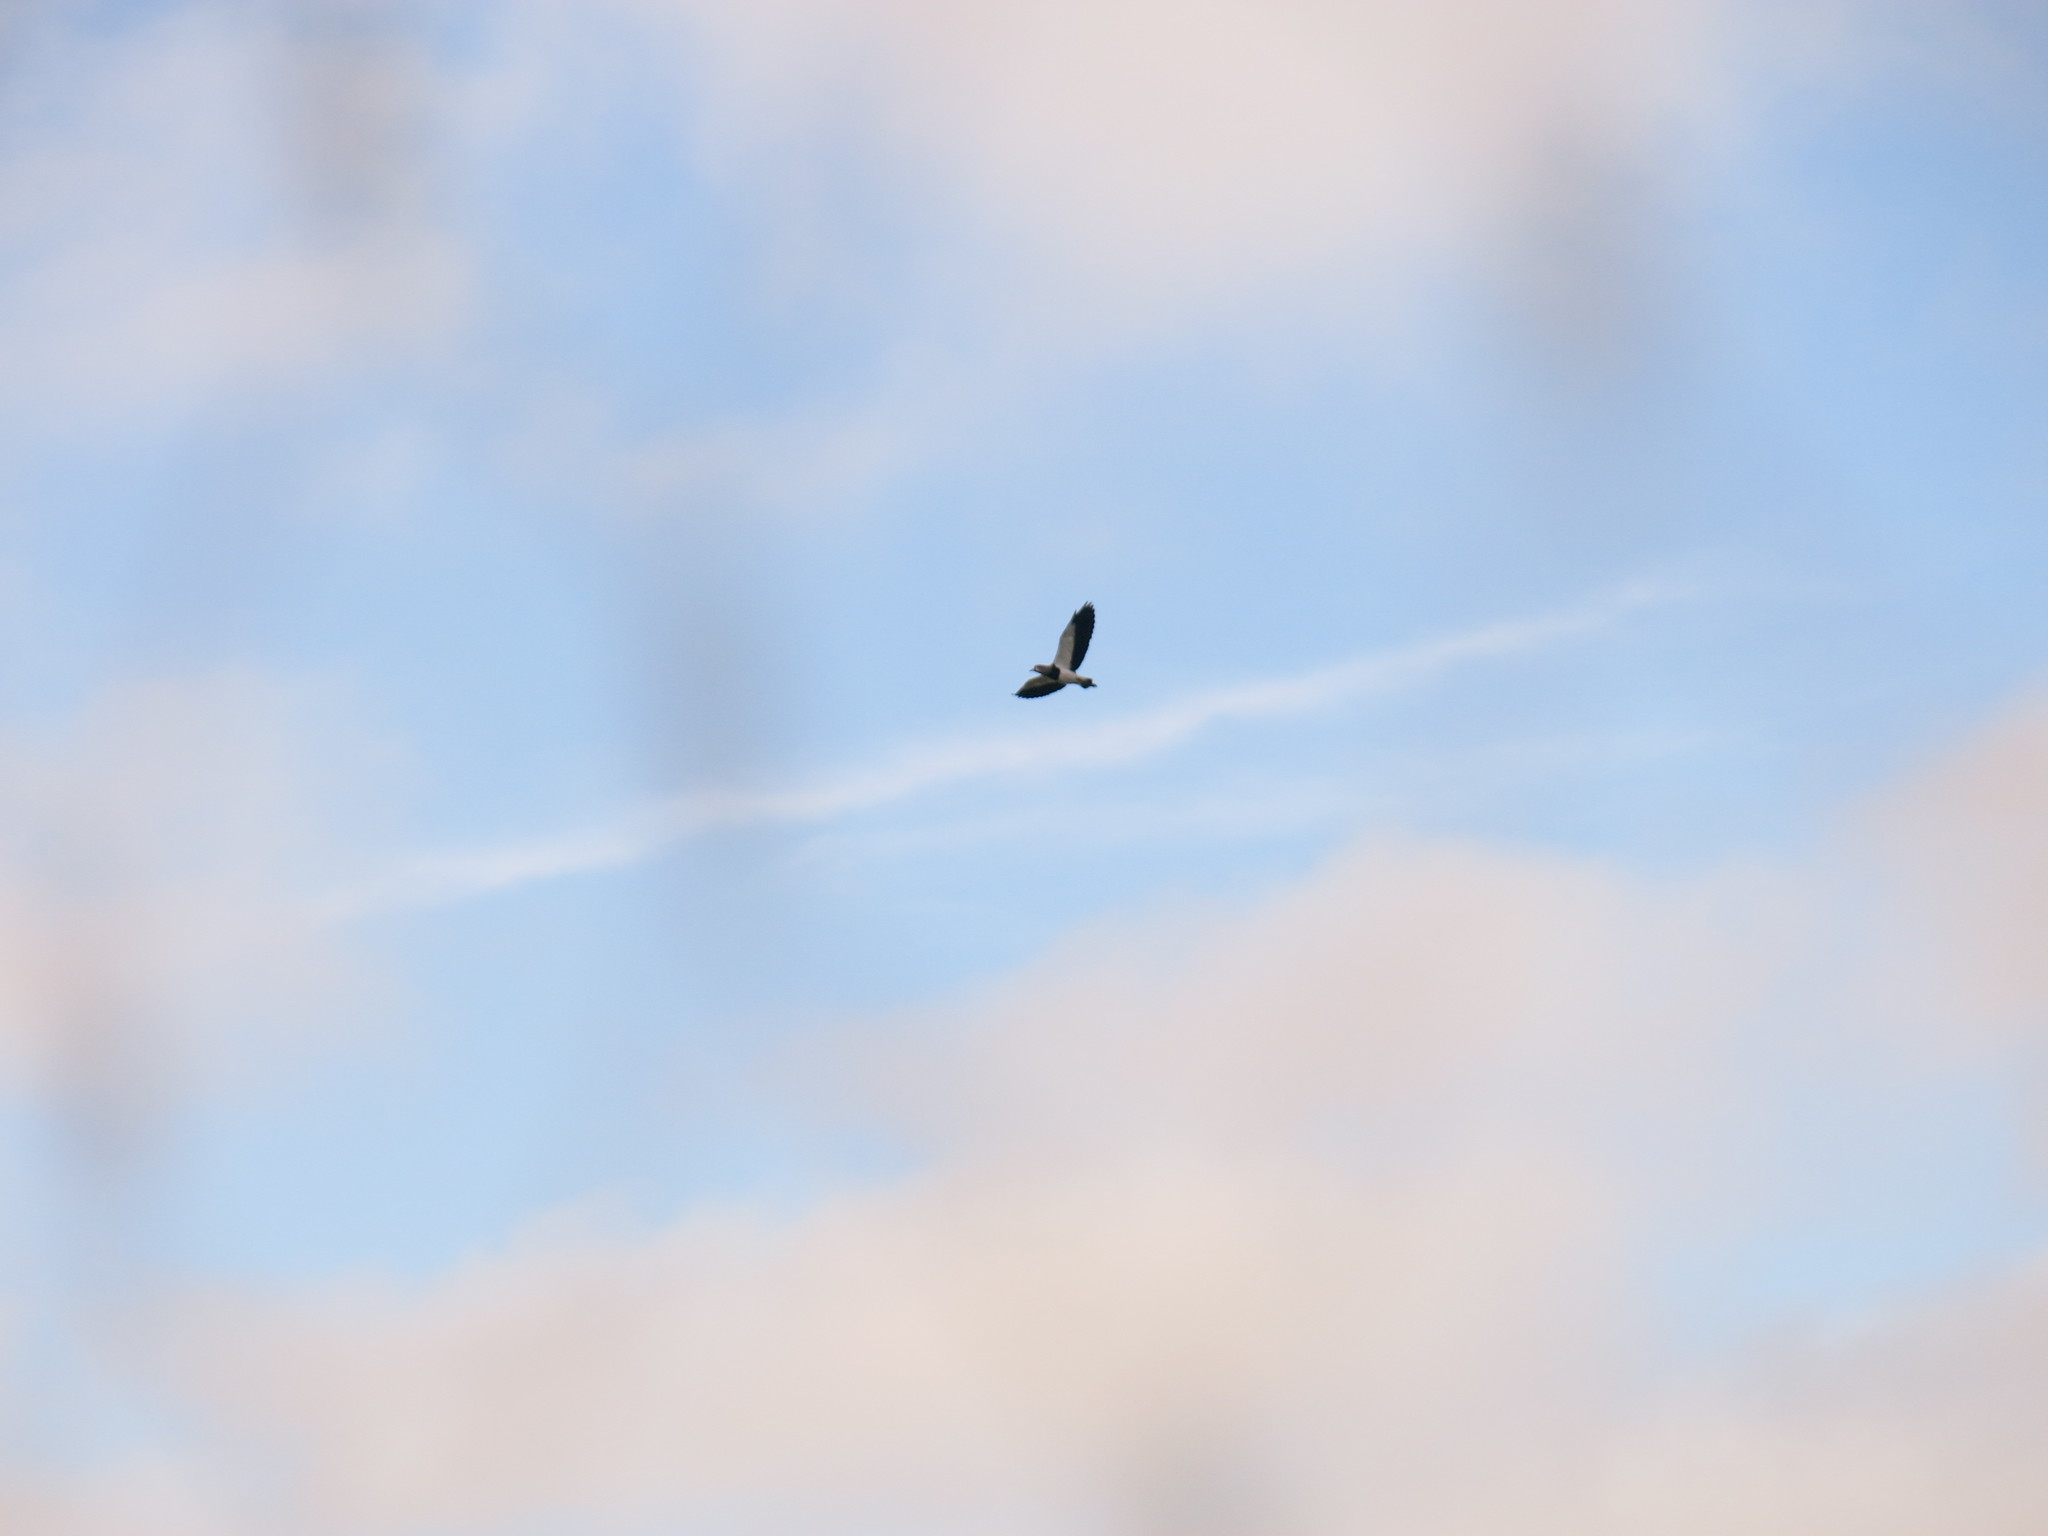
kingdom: Animalia
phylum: Chordata
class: Aves
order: Charadriiformes
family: Charadriidae
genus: Vanellus
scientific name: Vanellus chilensis
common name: Southern lapwing
